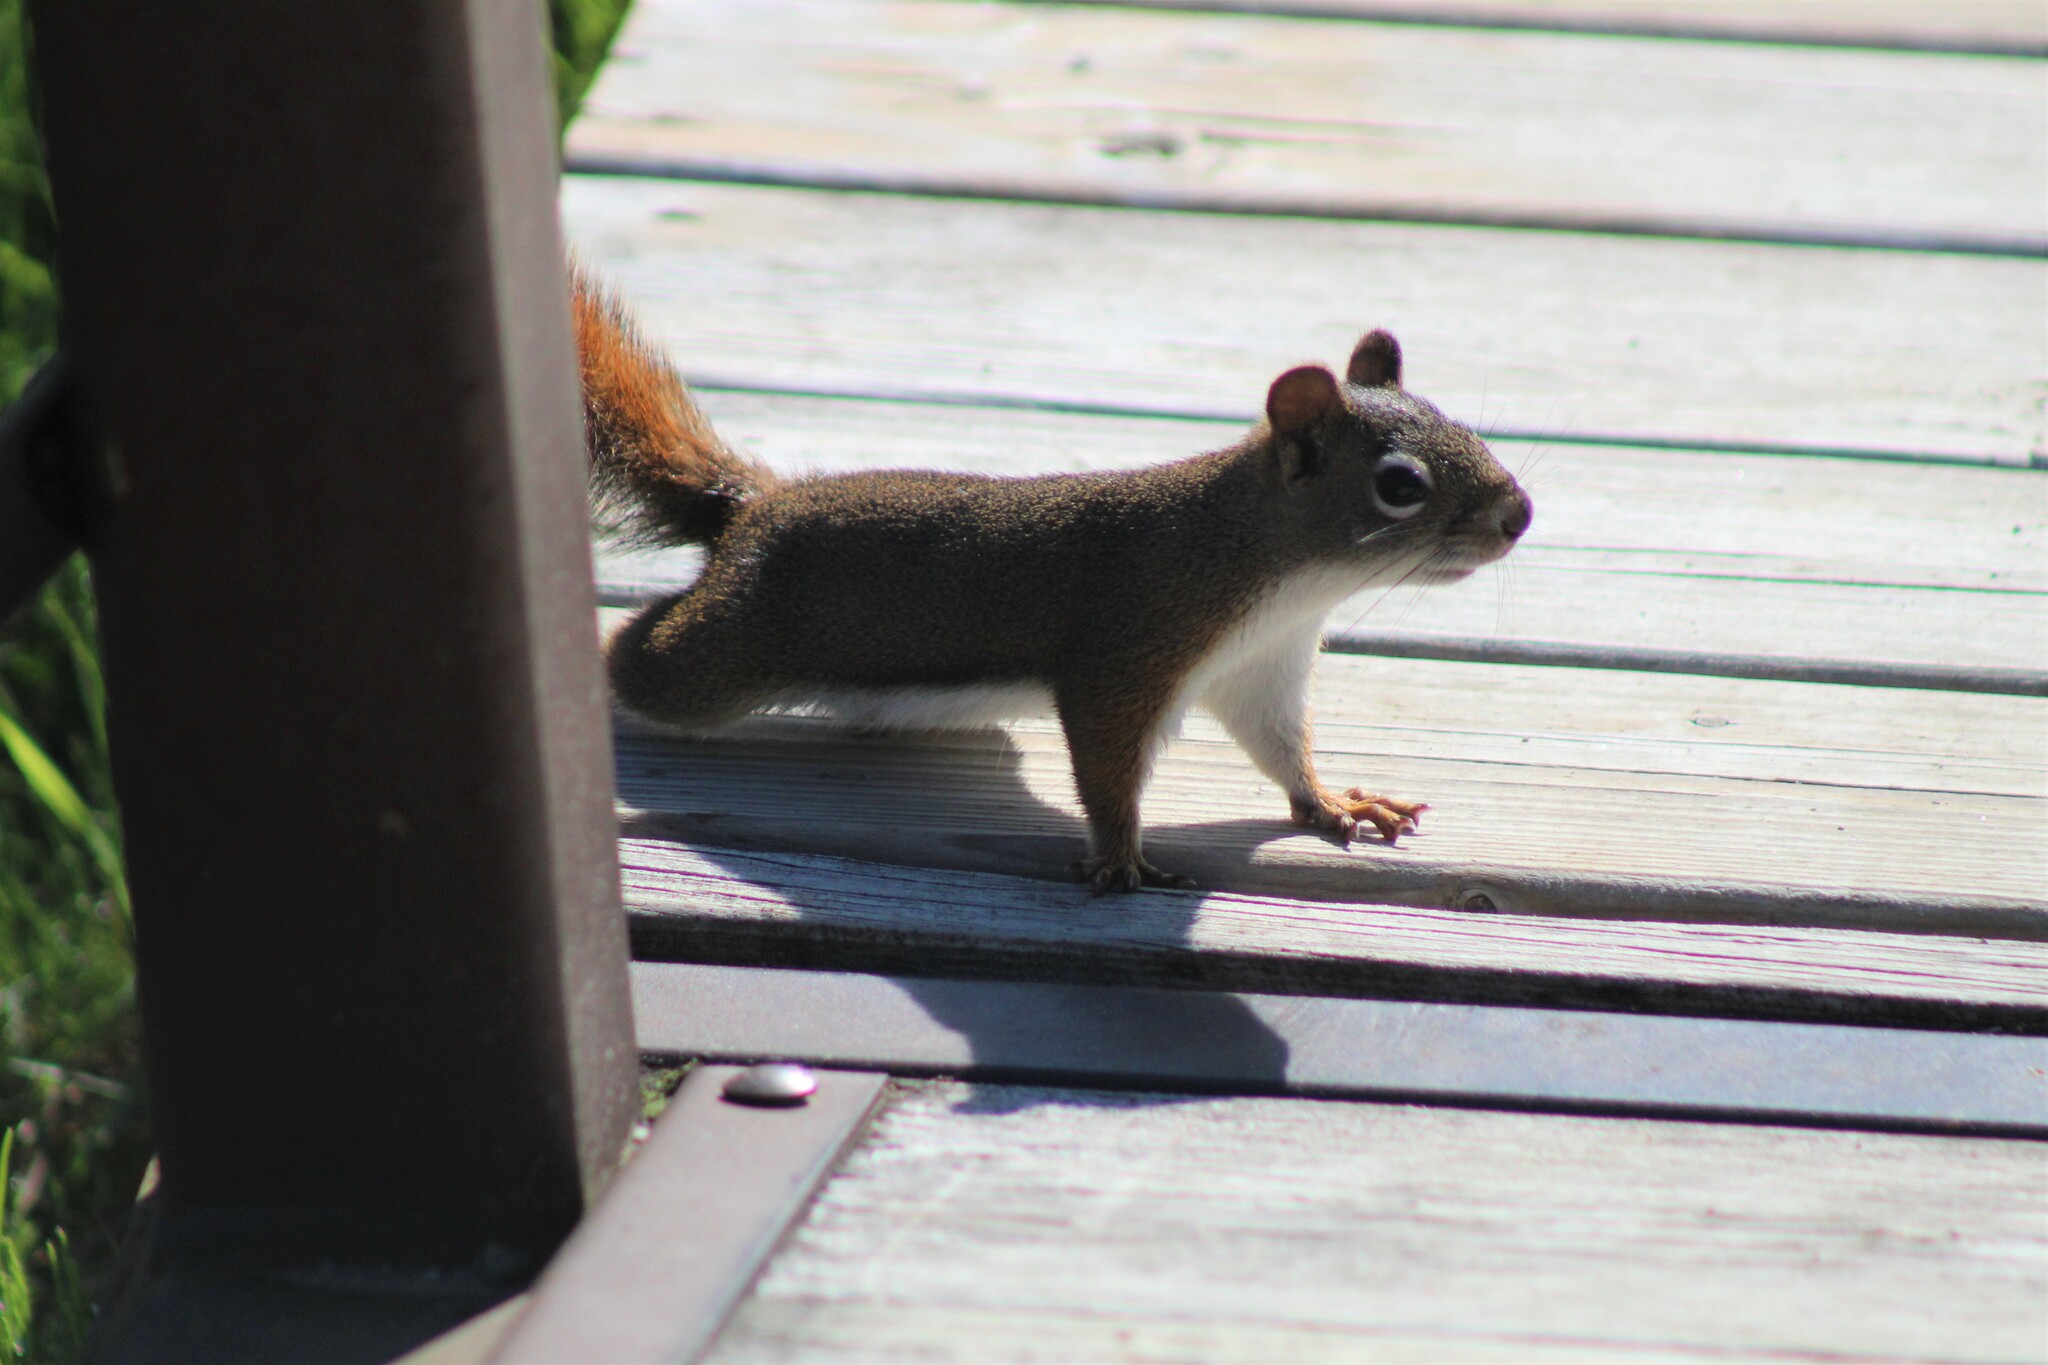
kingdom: Animalia
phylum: Chordata
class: Mammalia
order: Rodentia
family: Sciuridae
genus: Tamiasciurus
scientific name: Tamiasciurus hudsonicus
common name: Red squirrel
